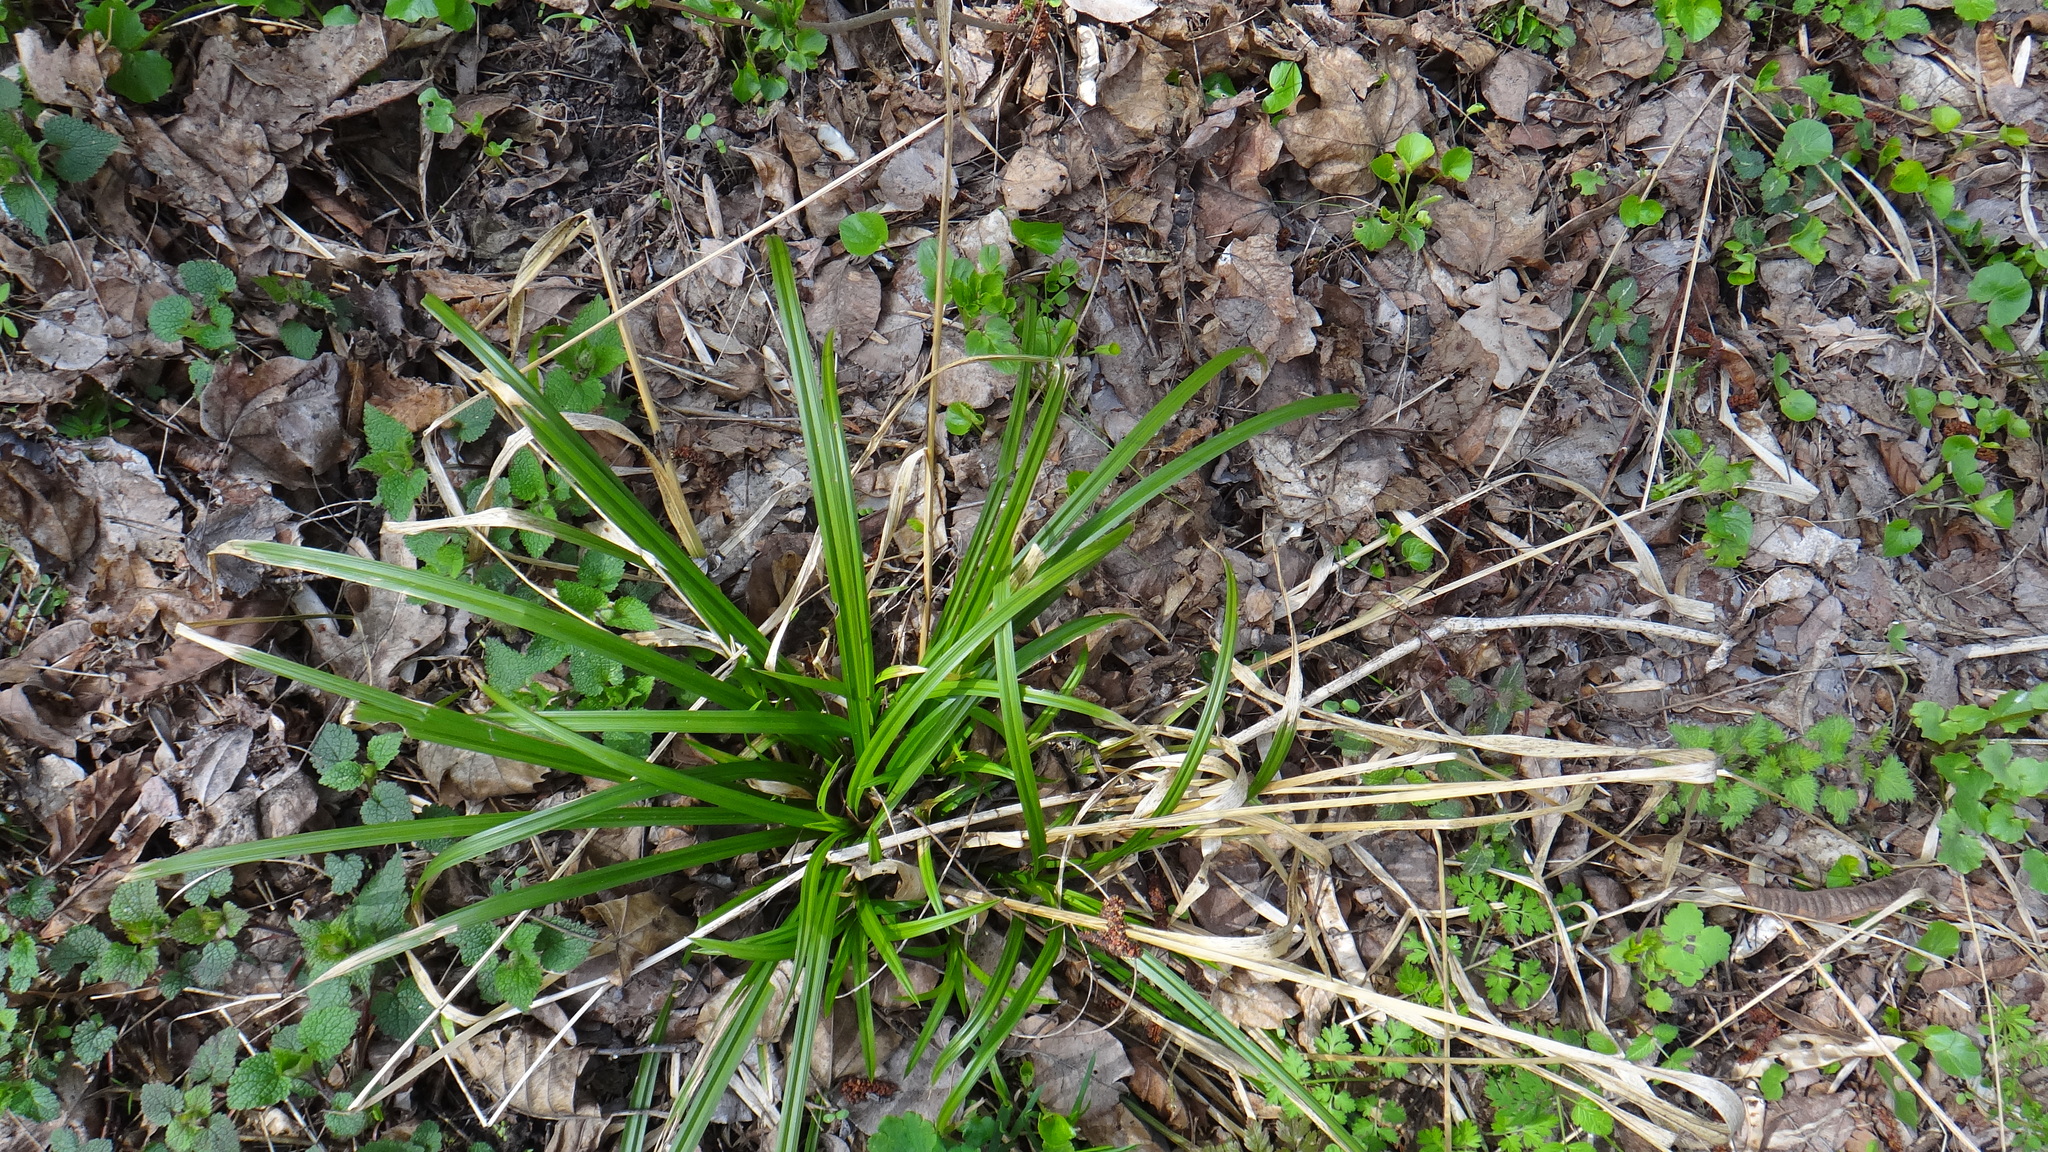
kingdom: Plantae
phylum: Tracheophyta
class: Liliopsida
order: Poales
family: Cyperaceae
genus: Carex
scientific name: Carex sylvatica
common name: Wood-sedge
